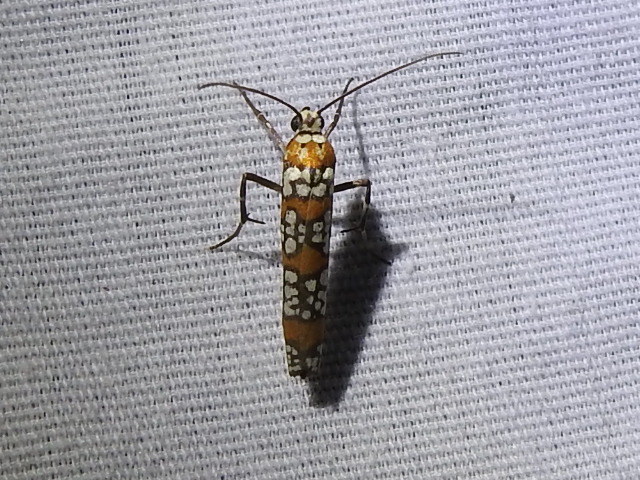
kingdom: Animalia
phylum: Arthropoda
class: Insecta
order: Lepidoptera
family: Attevidae
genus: Atteva
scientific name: Atteva punctella
